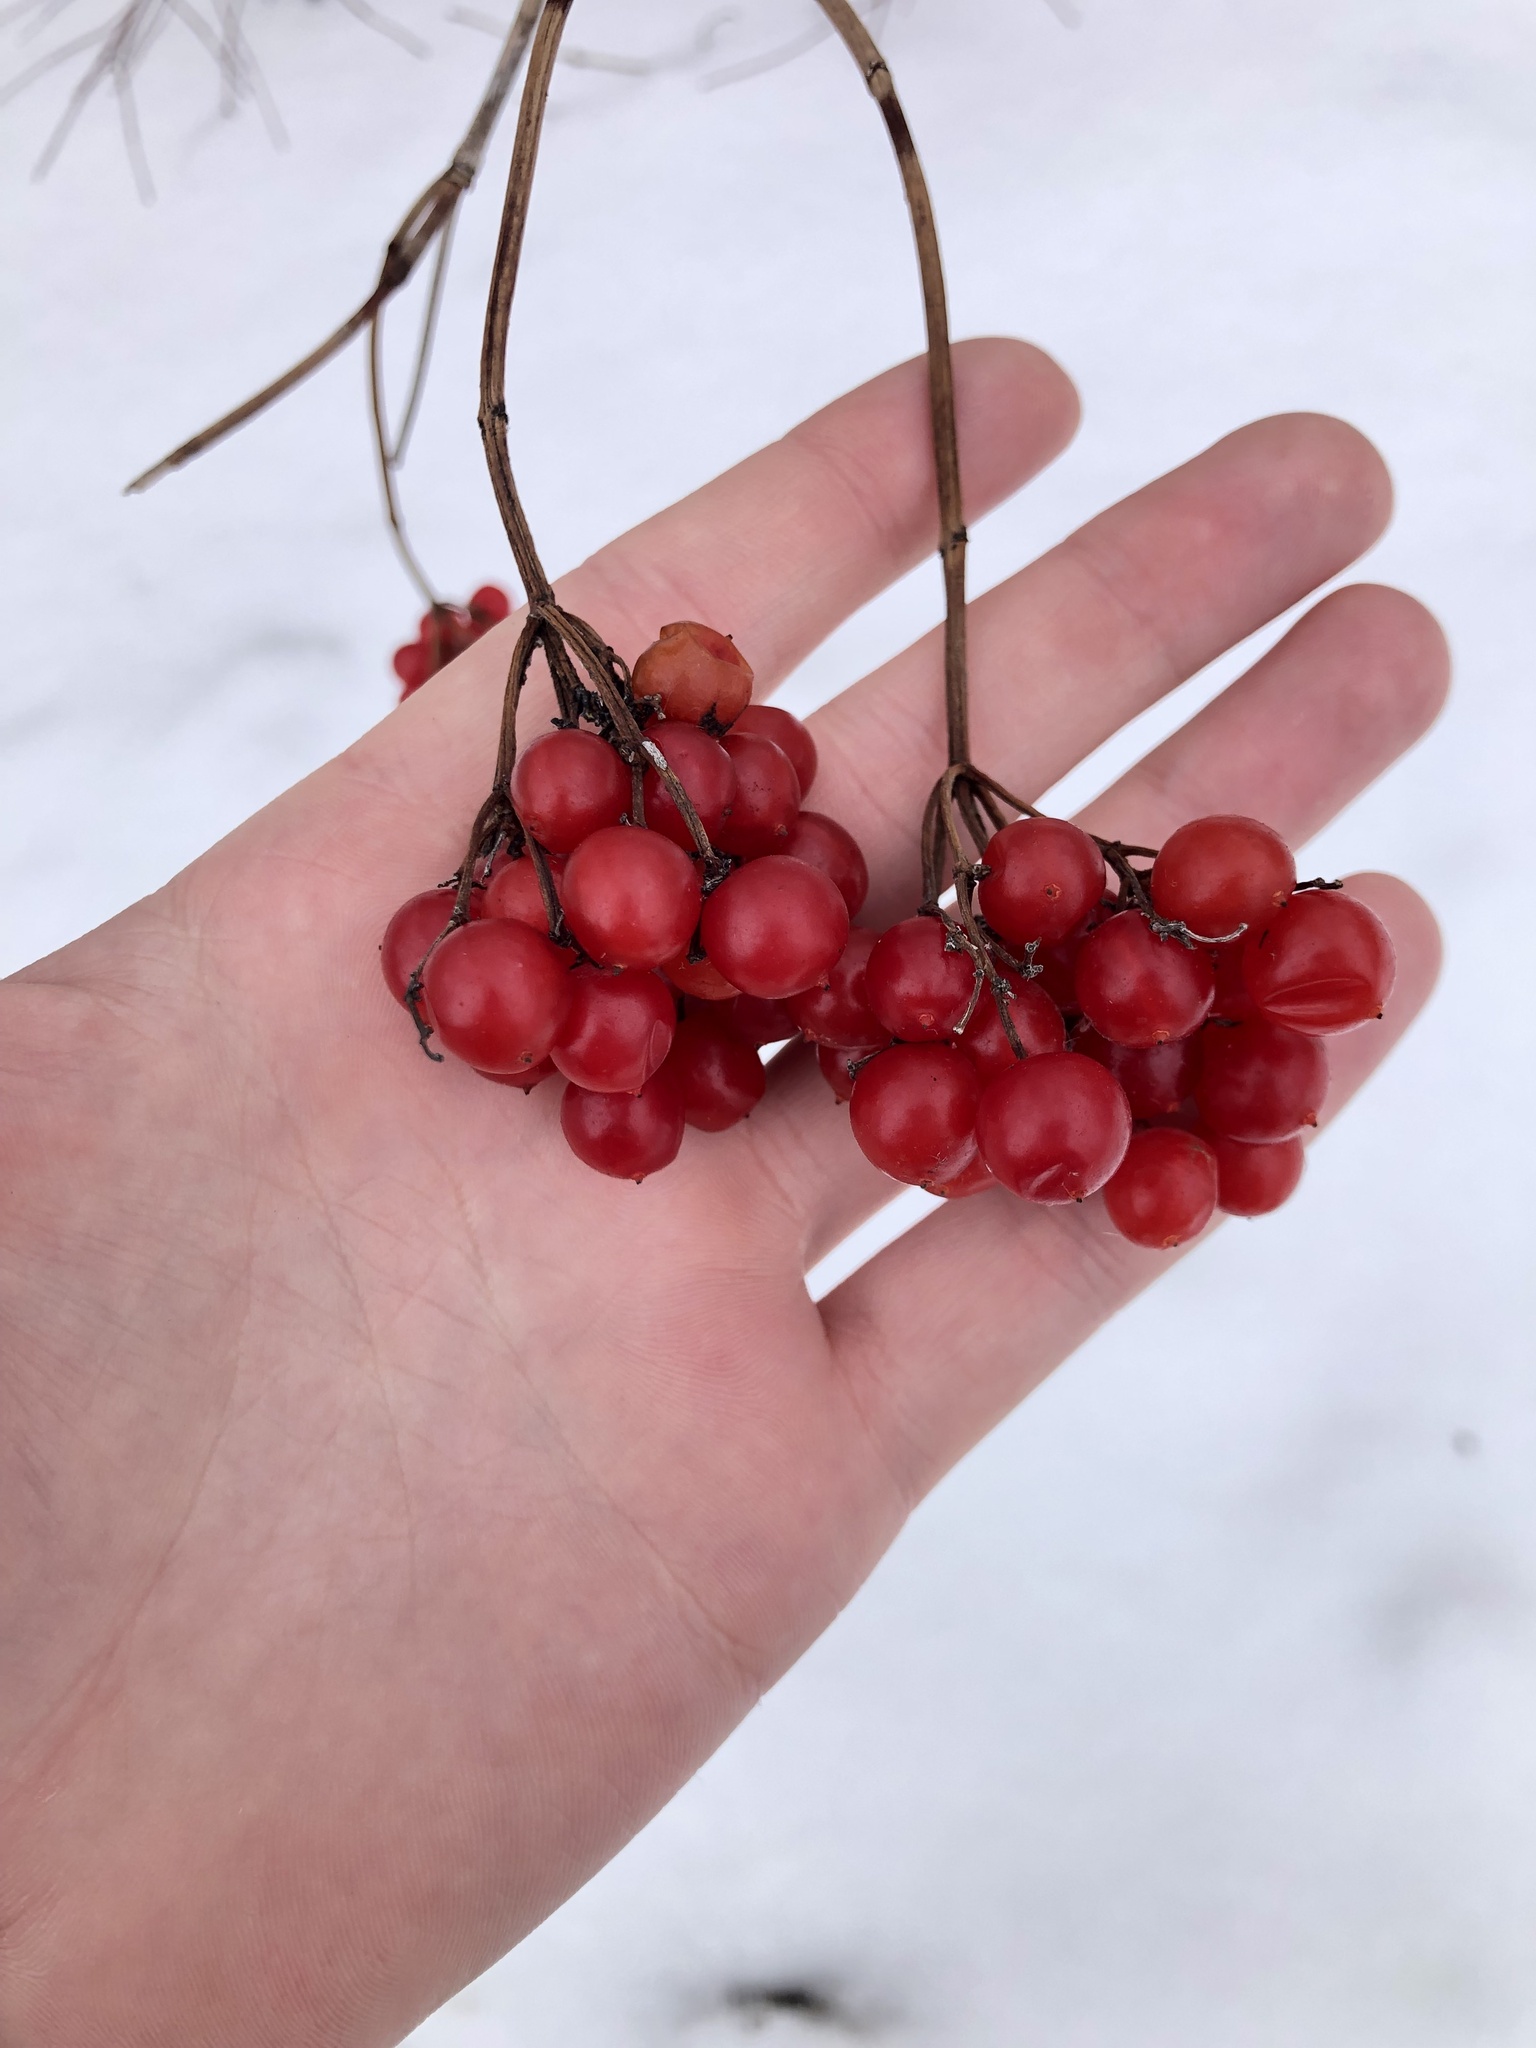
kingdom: Plantae
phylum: Tracheophyta
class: Magnoliopsida
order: Dipsacales
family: Viburnaceae
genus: Viburnum
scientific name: Viburnum opulus
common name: Guelder-rose
